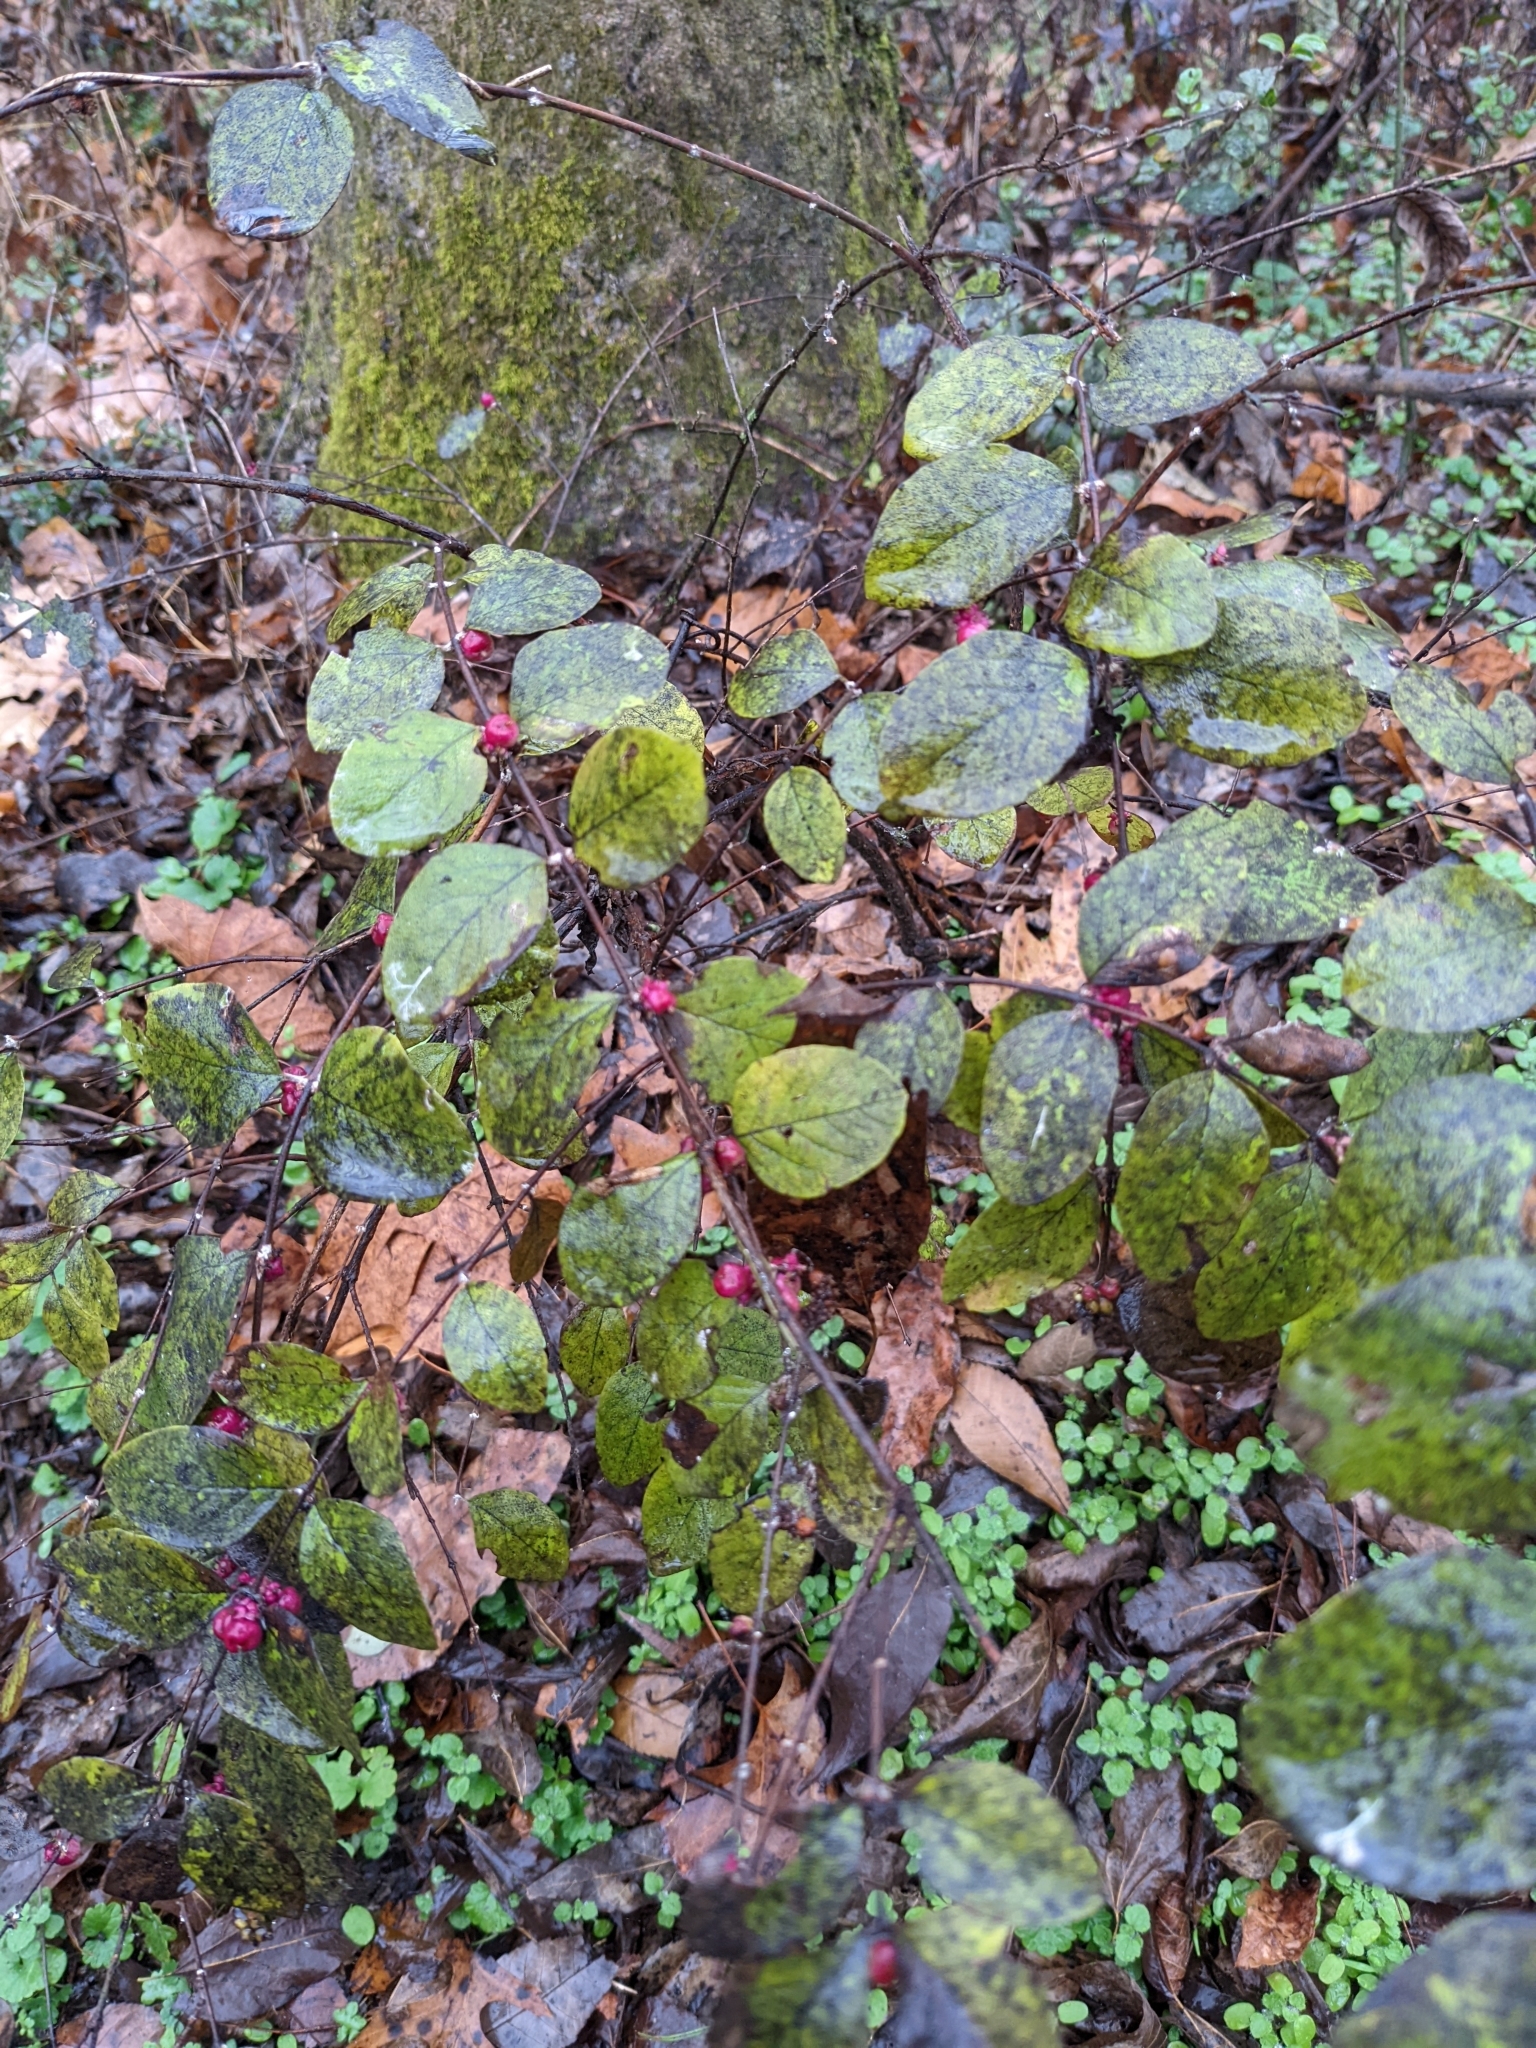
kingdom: Plantae
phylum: Tracheophyta
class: Magnoliopsida
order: Dipsacales
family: Caprifoliaceae
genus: Symphoricarpos
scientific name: Symphoricarpos orbiculatus
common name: Coralberry
